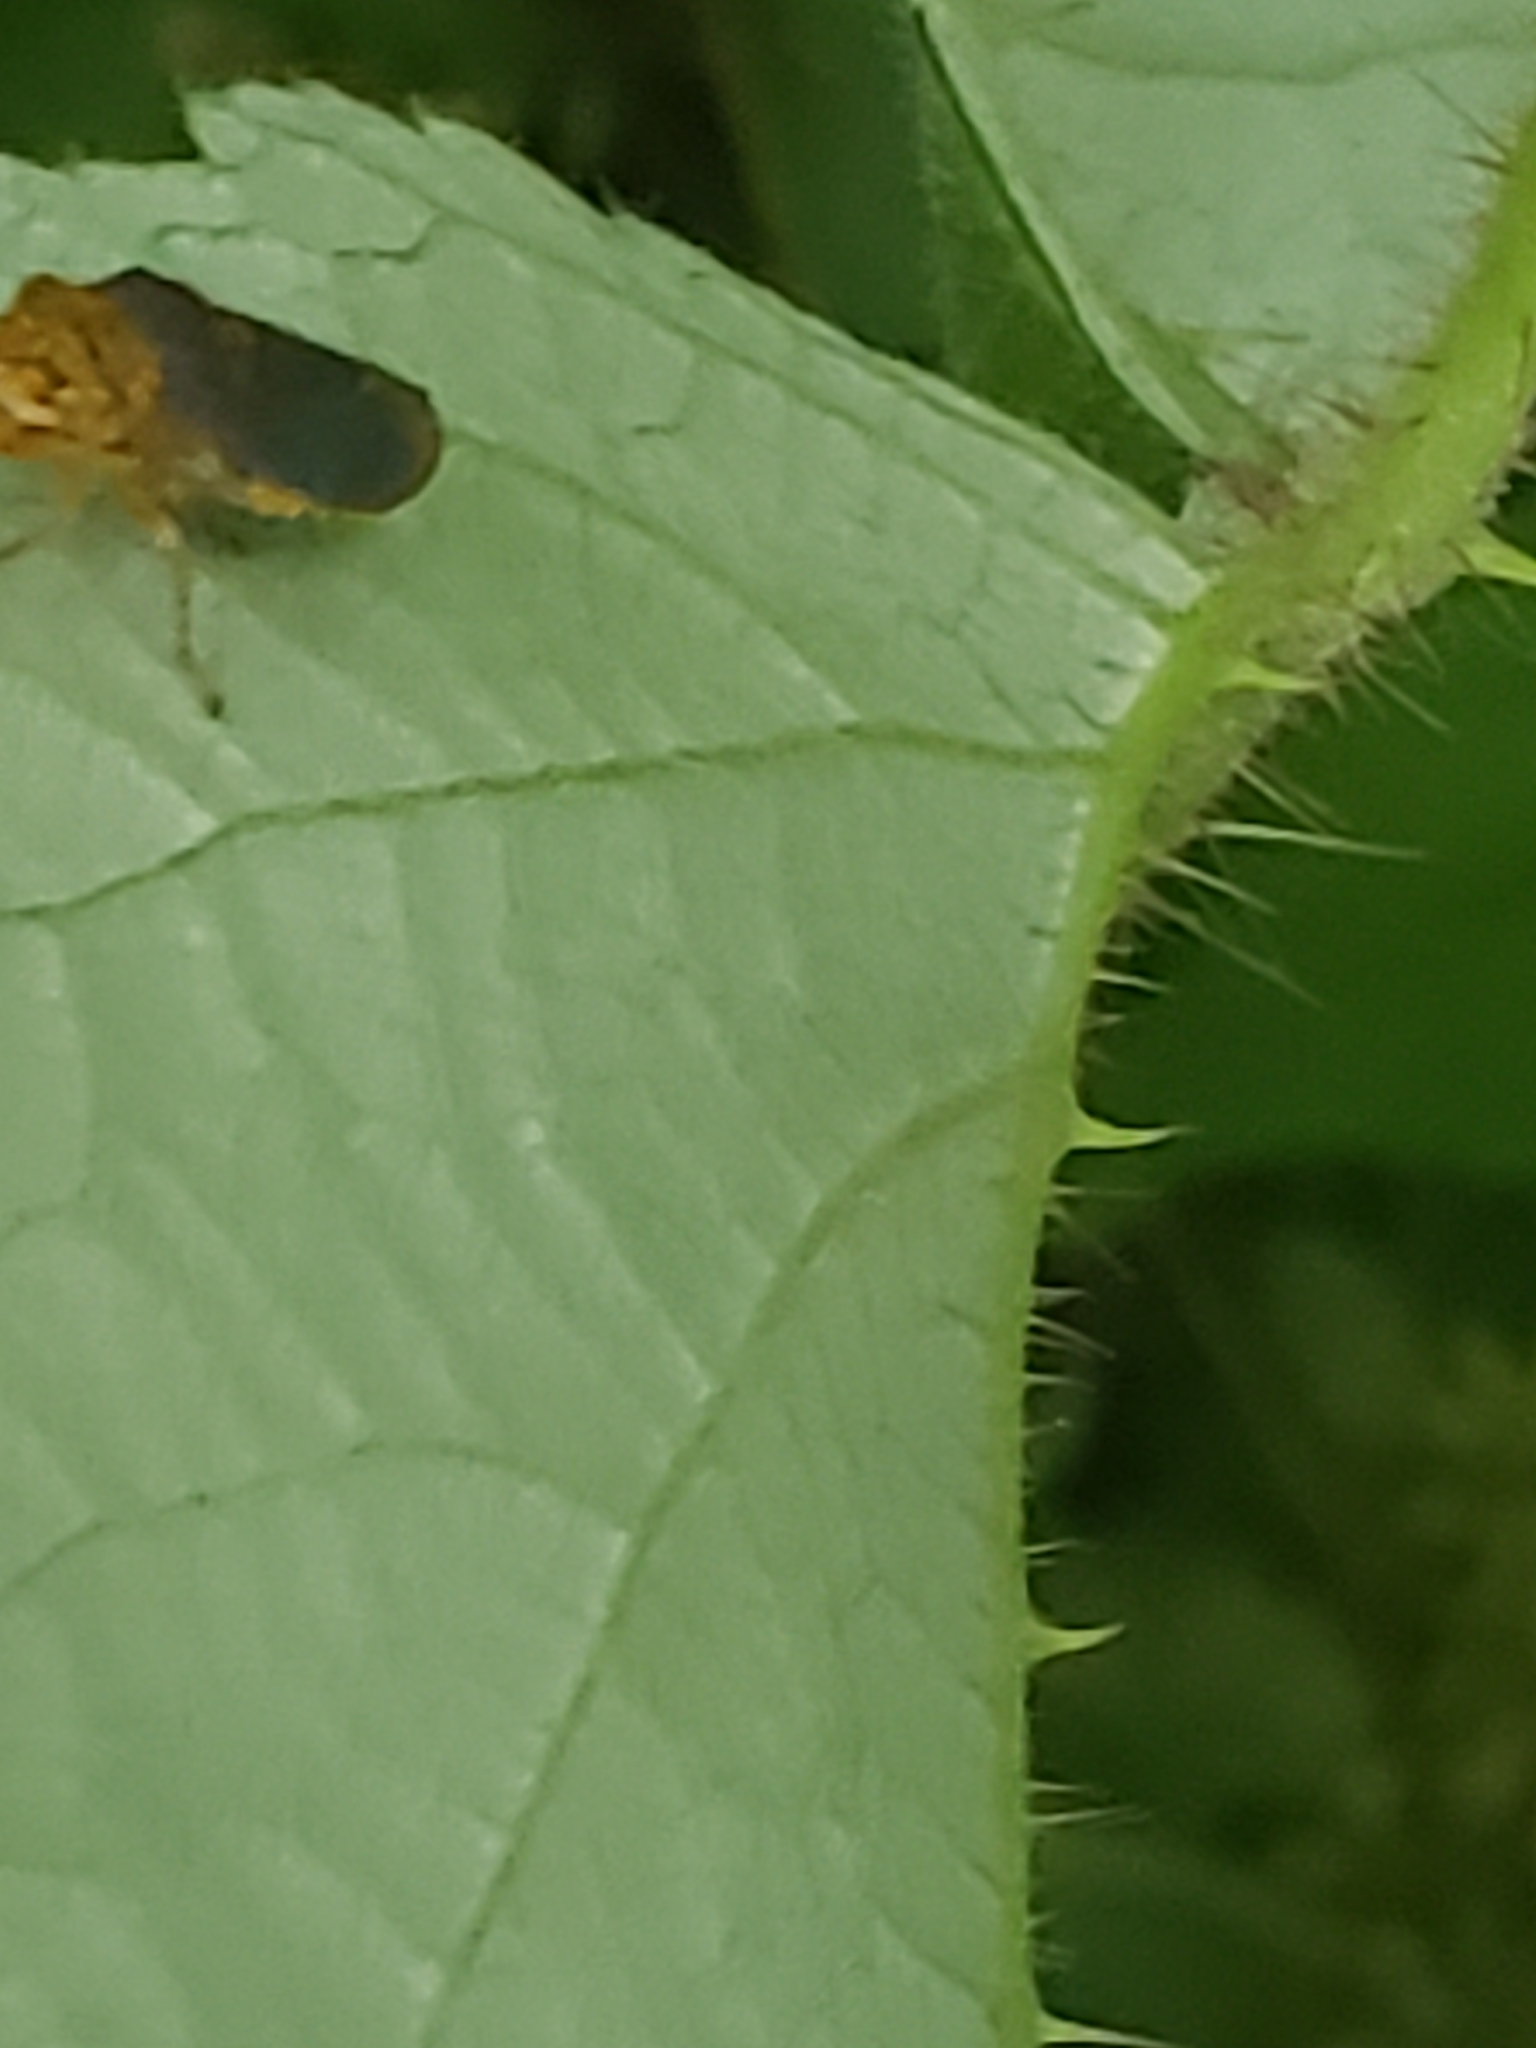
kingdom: Animalia
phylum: Arthropoda
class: Insecta
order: Hemiptera
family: Cicadellidae
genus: Oncometopia
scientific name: Oncometopia orbona
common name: Broad-headed sharpshooter
